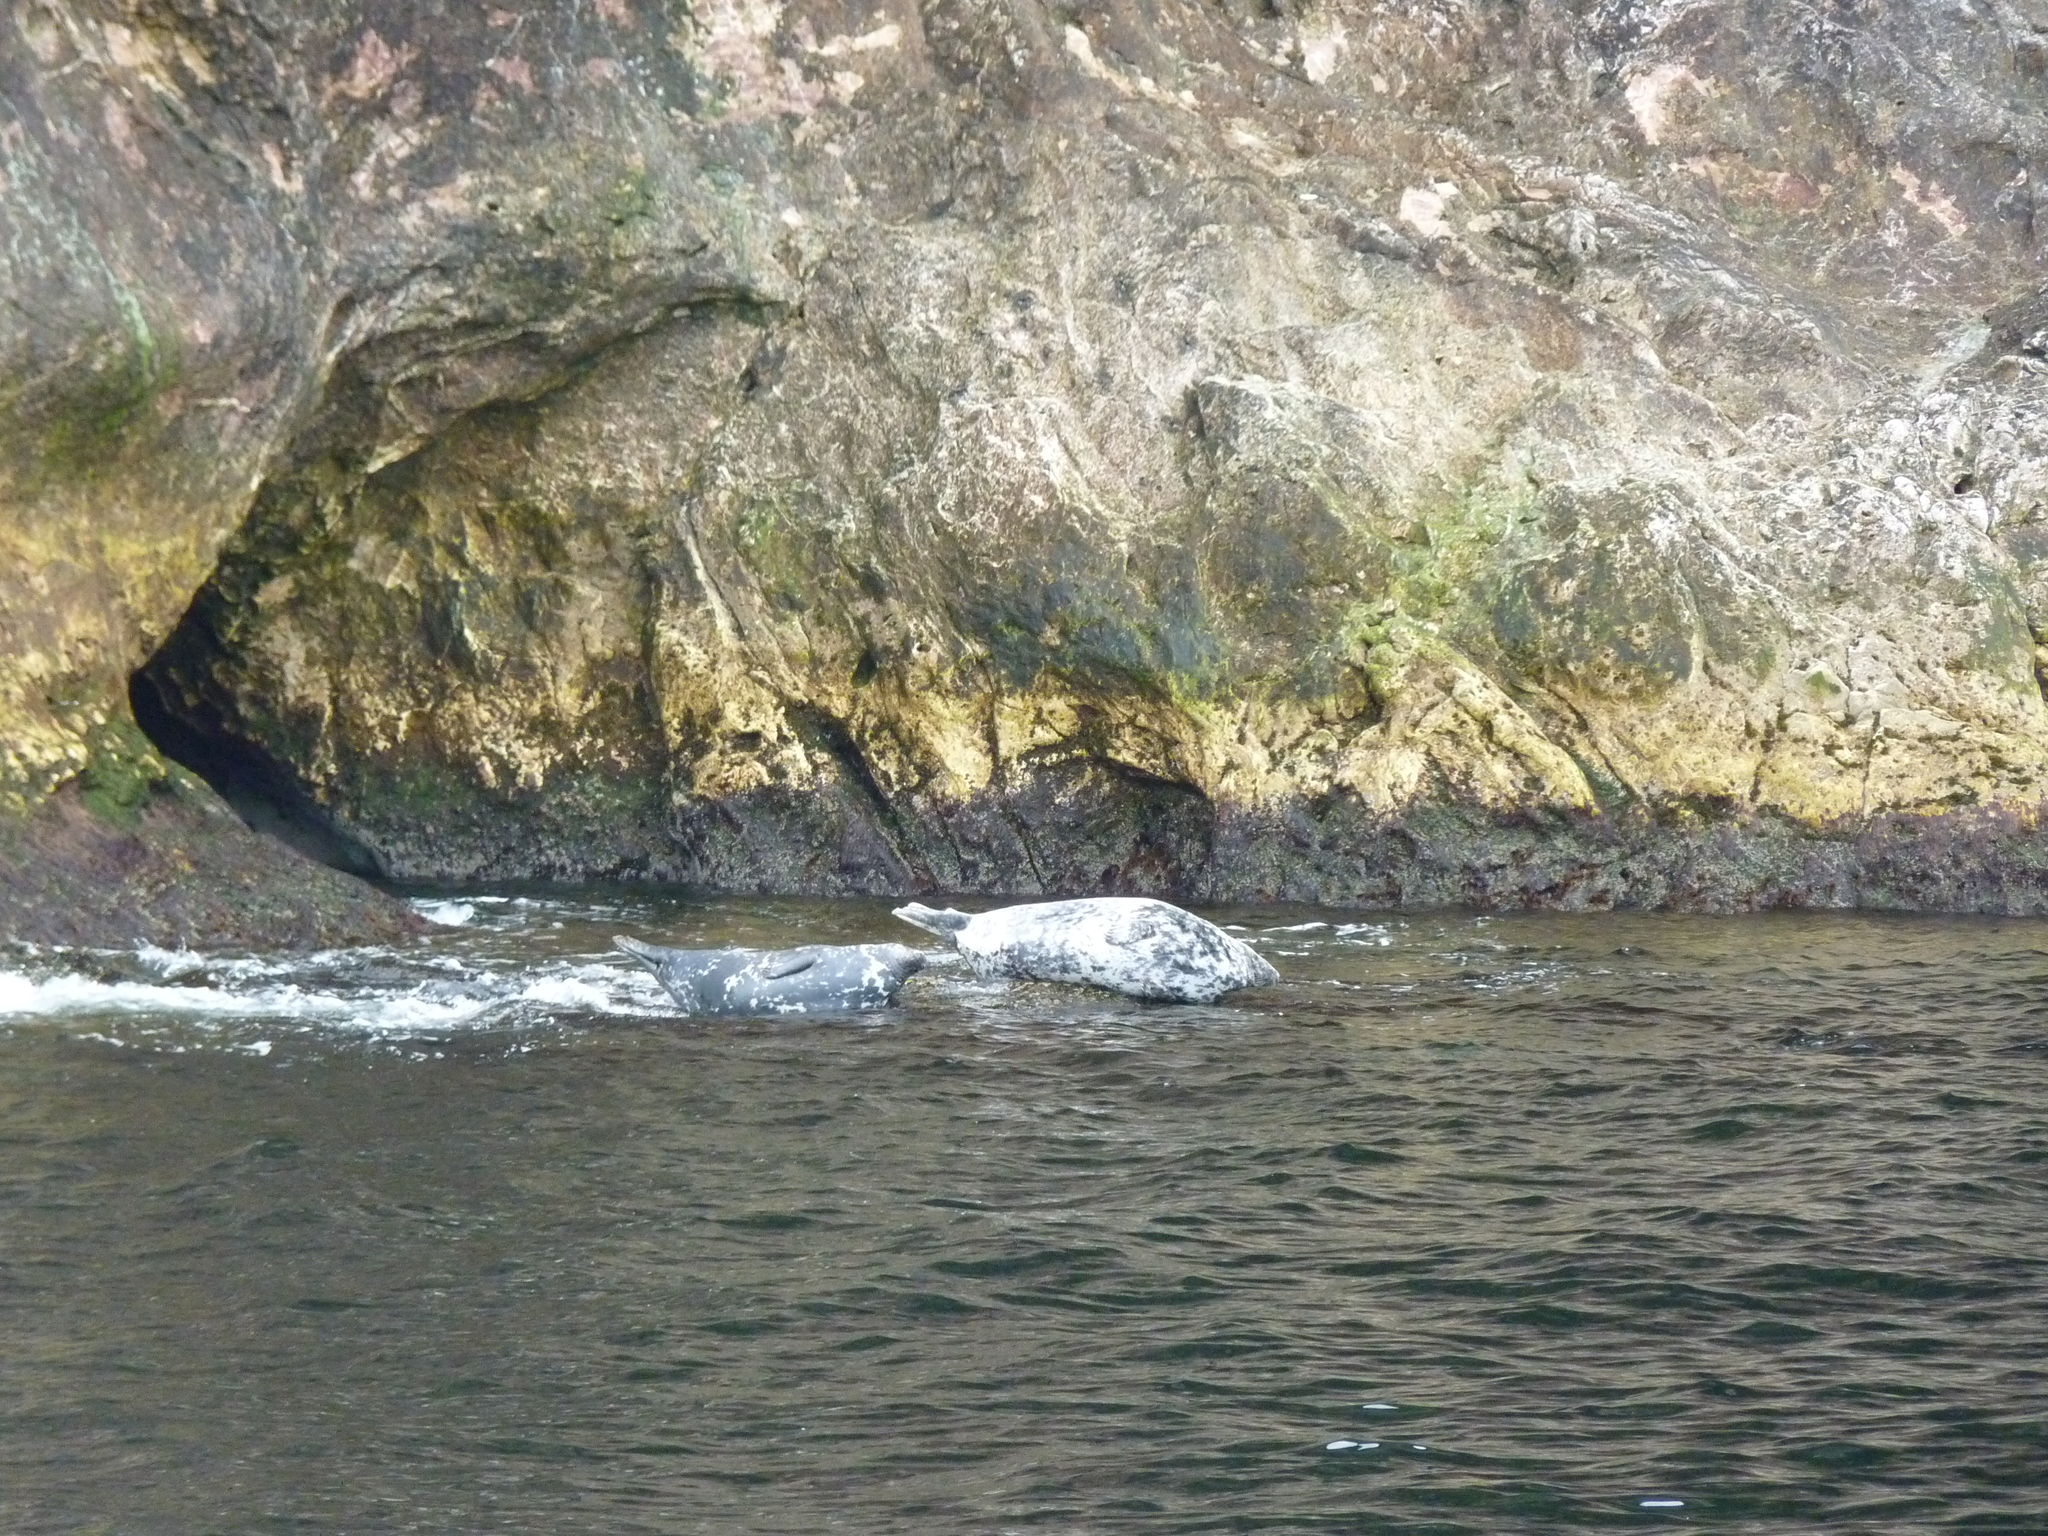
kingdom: Animalia
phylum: Chordata
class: Mammalia
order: Carnivora
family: Phocidae
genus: Halichoerus
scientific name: Halichoerus grypus
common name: Grey seal
